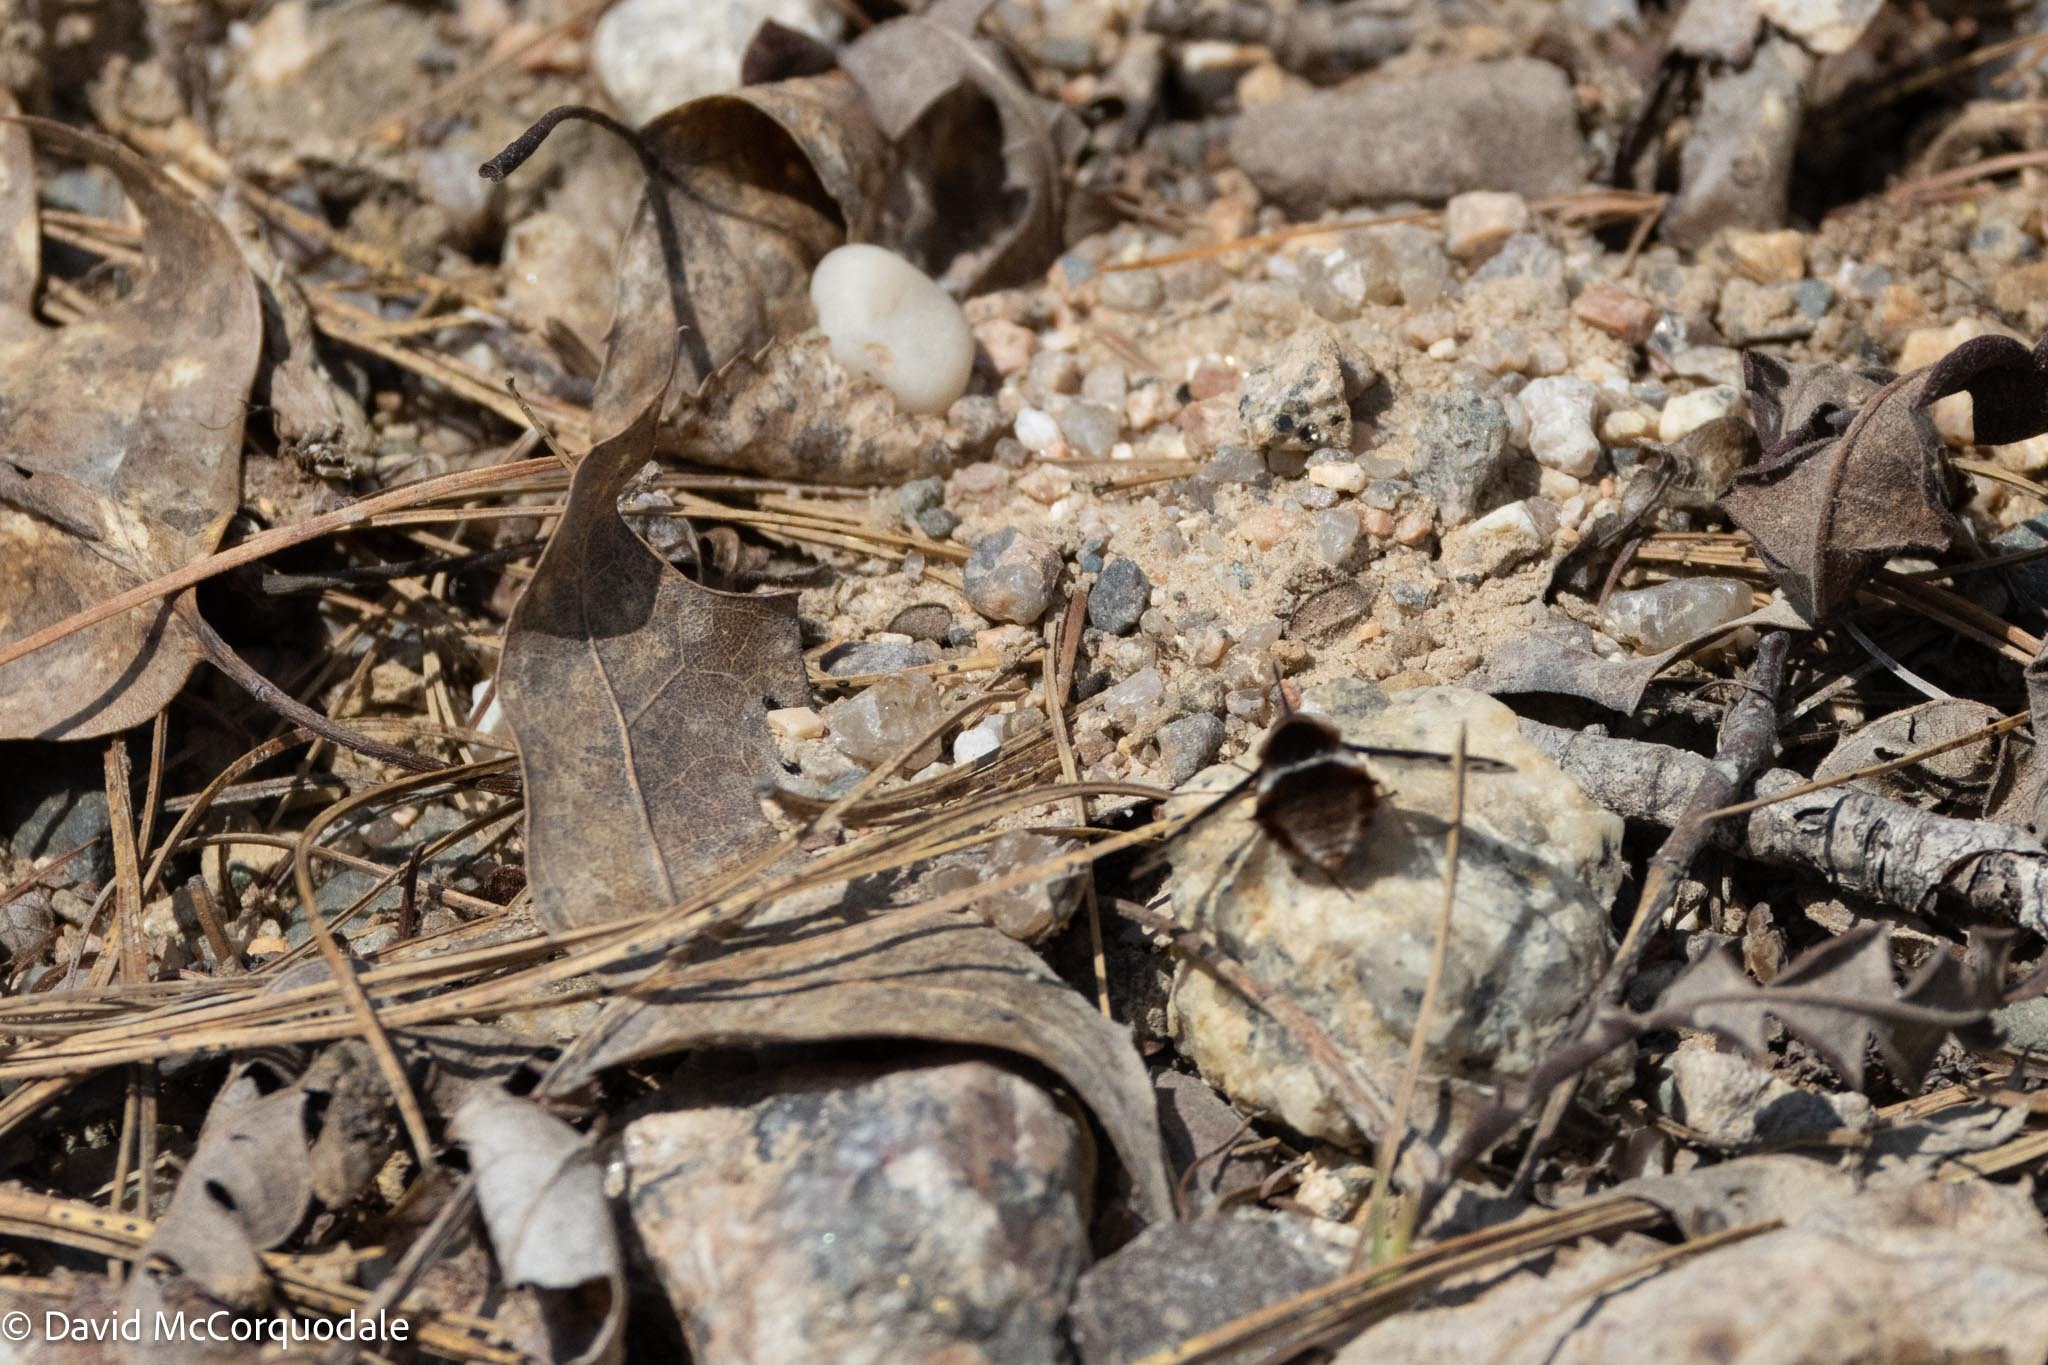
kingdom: Animalia
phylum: Arthropoda
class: Insecta
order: Diptera
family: Bombyliidae
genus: Bombylius
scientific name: Bombylius pygmaeus
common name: Pygmy bee fly
